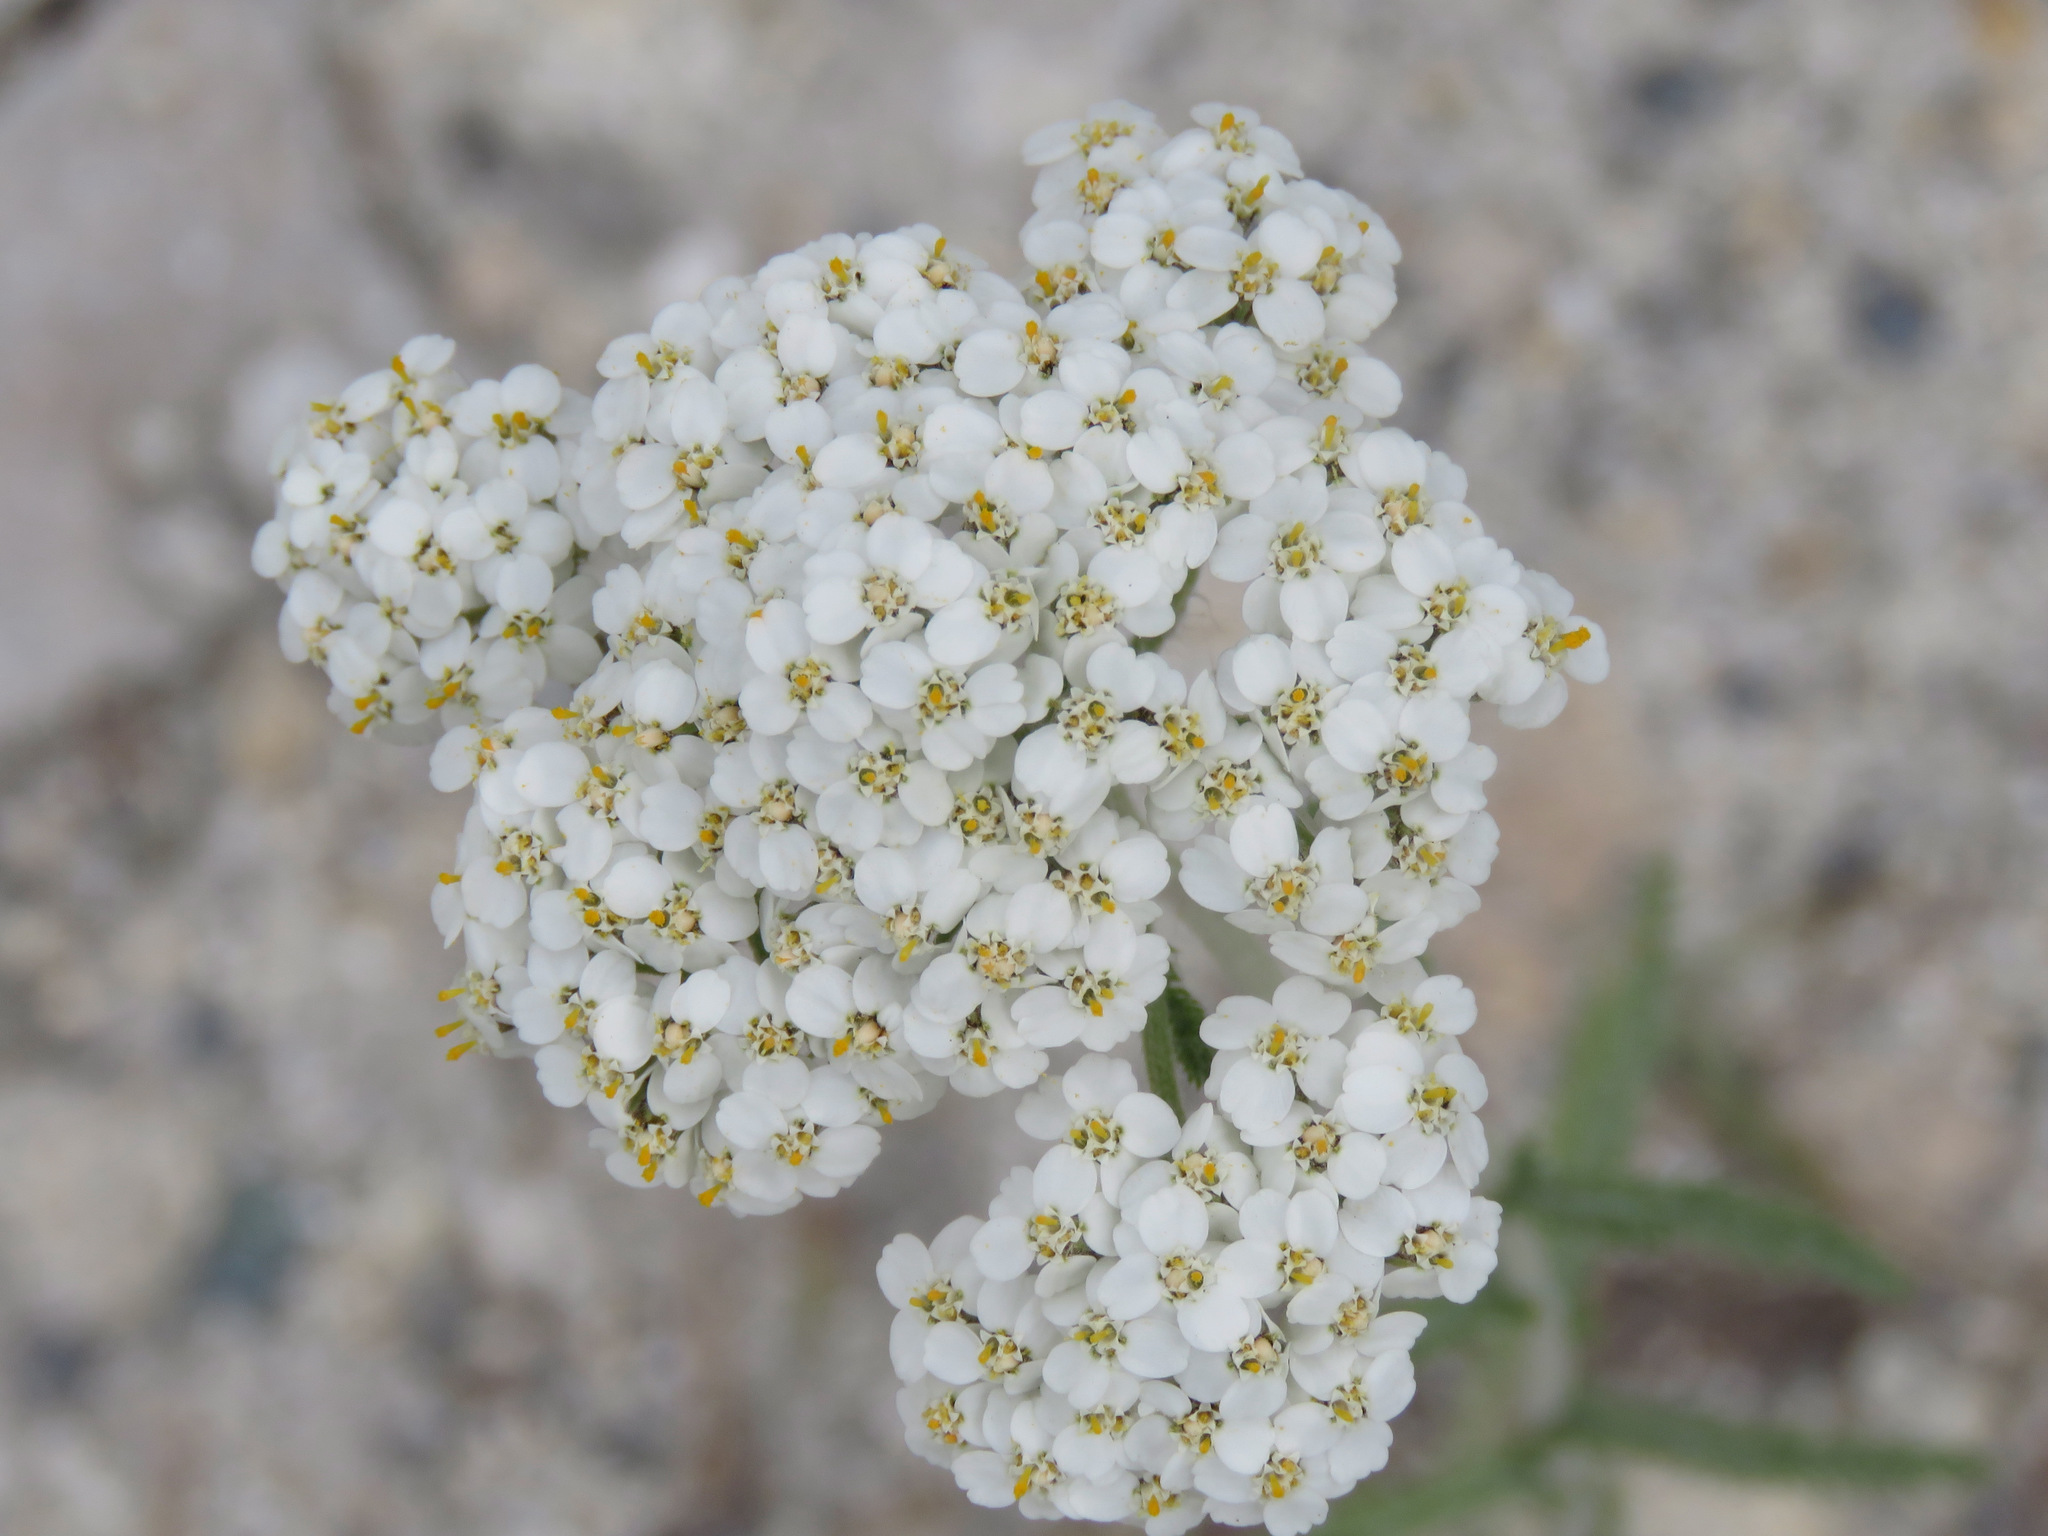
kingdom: Plantae
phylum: Tracheophyta
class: Magnoliopsida
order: Asterales
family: Asteraceae
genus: Achillea
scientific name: Achillea millefolium
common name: Yarrow
